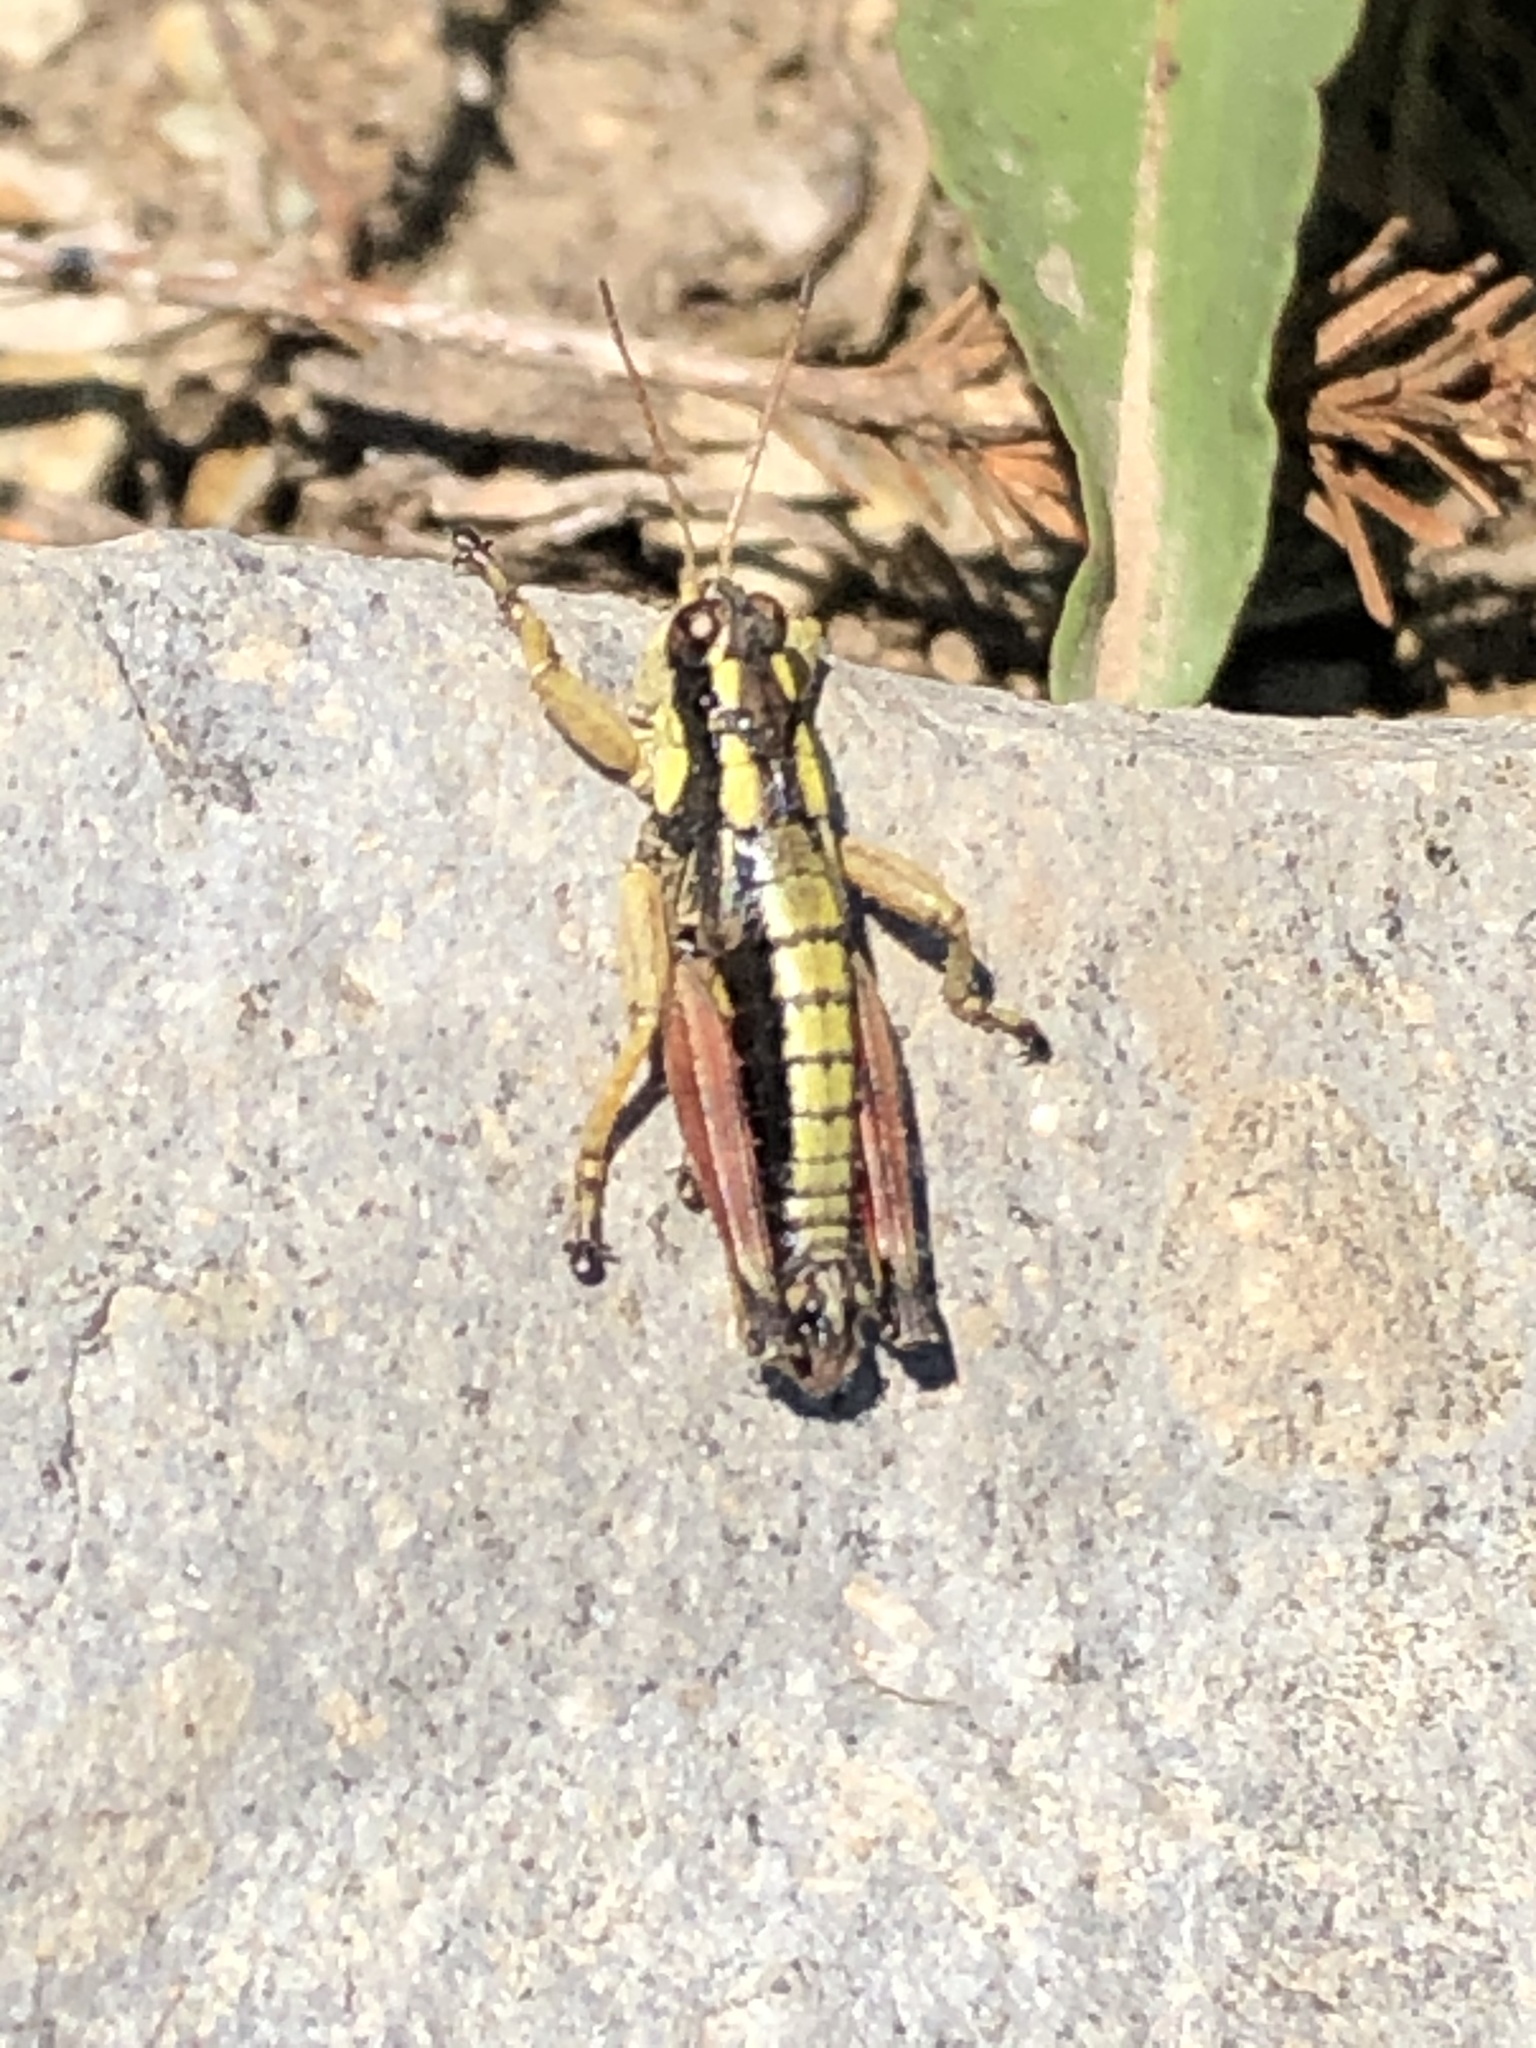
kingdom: Animalia
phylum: Arthropoda
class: Insecta
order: Orthoptera
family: Acrididae
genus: Prumnacris
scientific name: Prumnacris rainierensis
